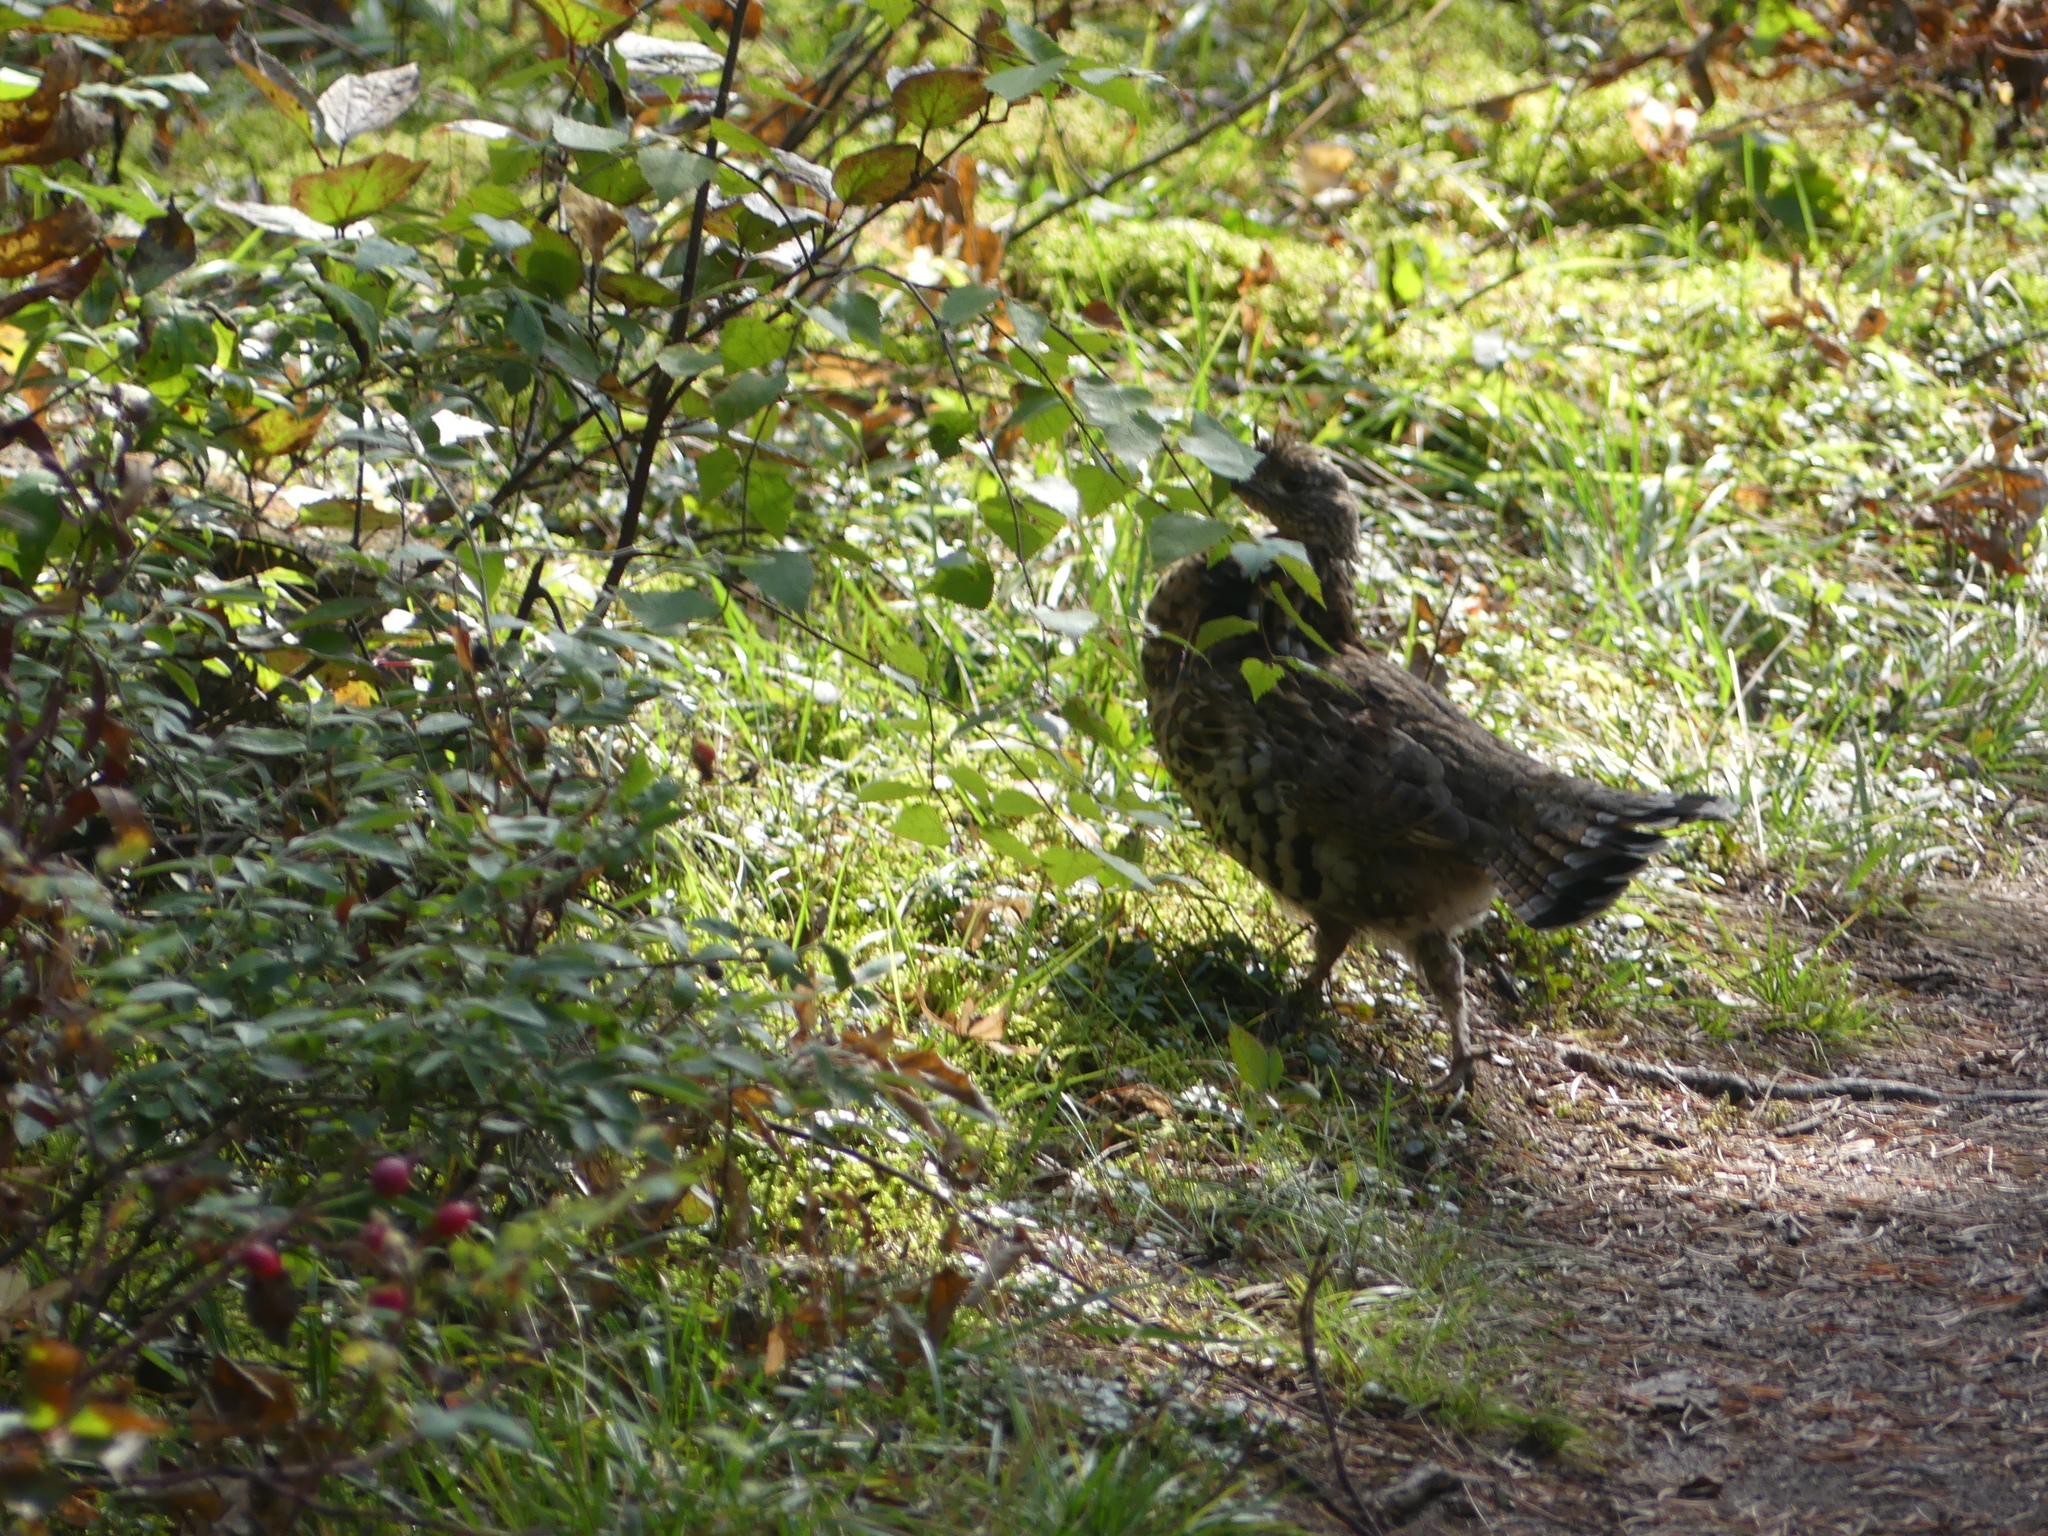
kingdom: Animalia
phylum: Chordata
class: Aves
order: Galliformes
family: Phasianidae
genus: Bonasa
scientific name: Bonasa umbellus
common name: Ruffed grouse
